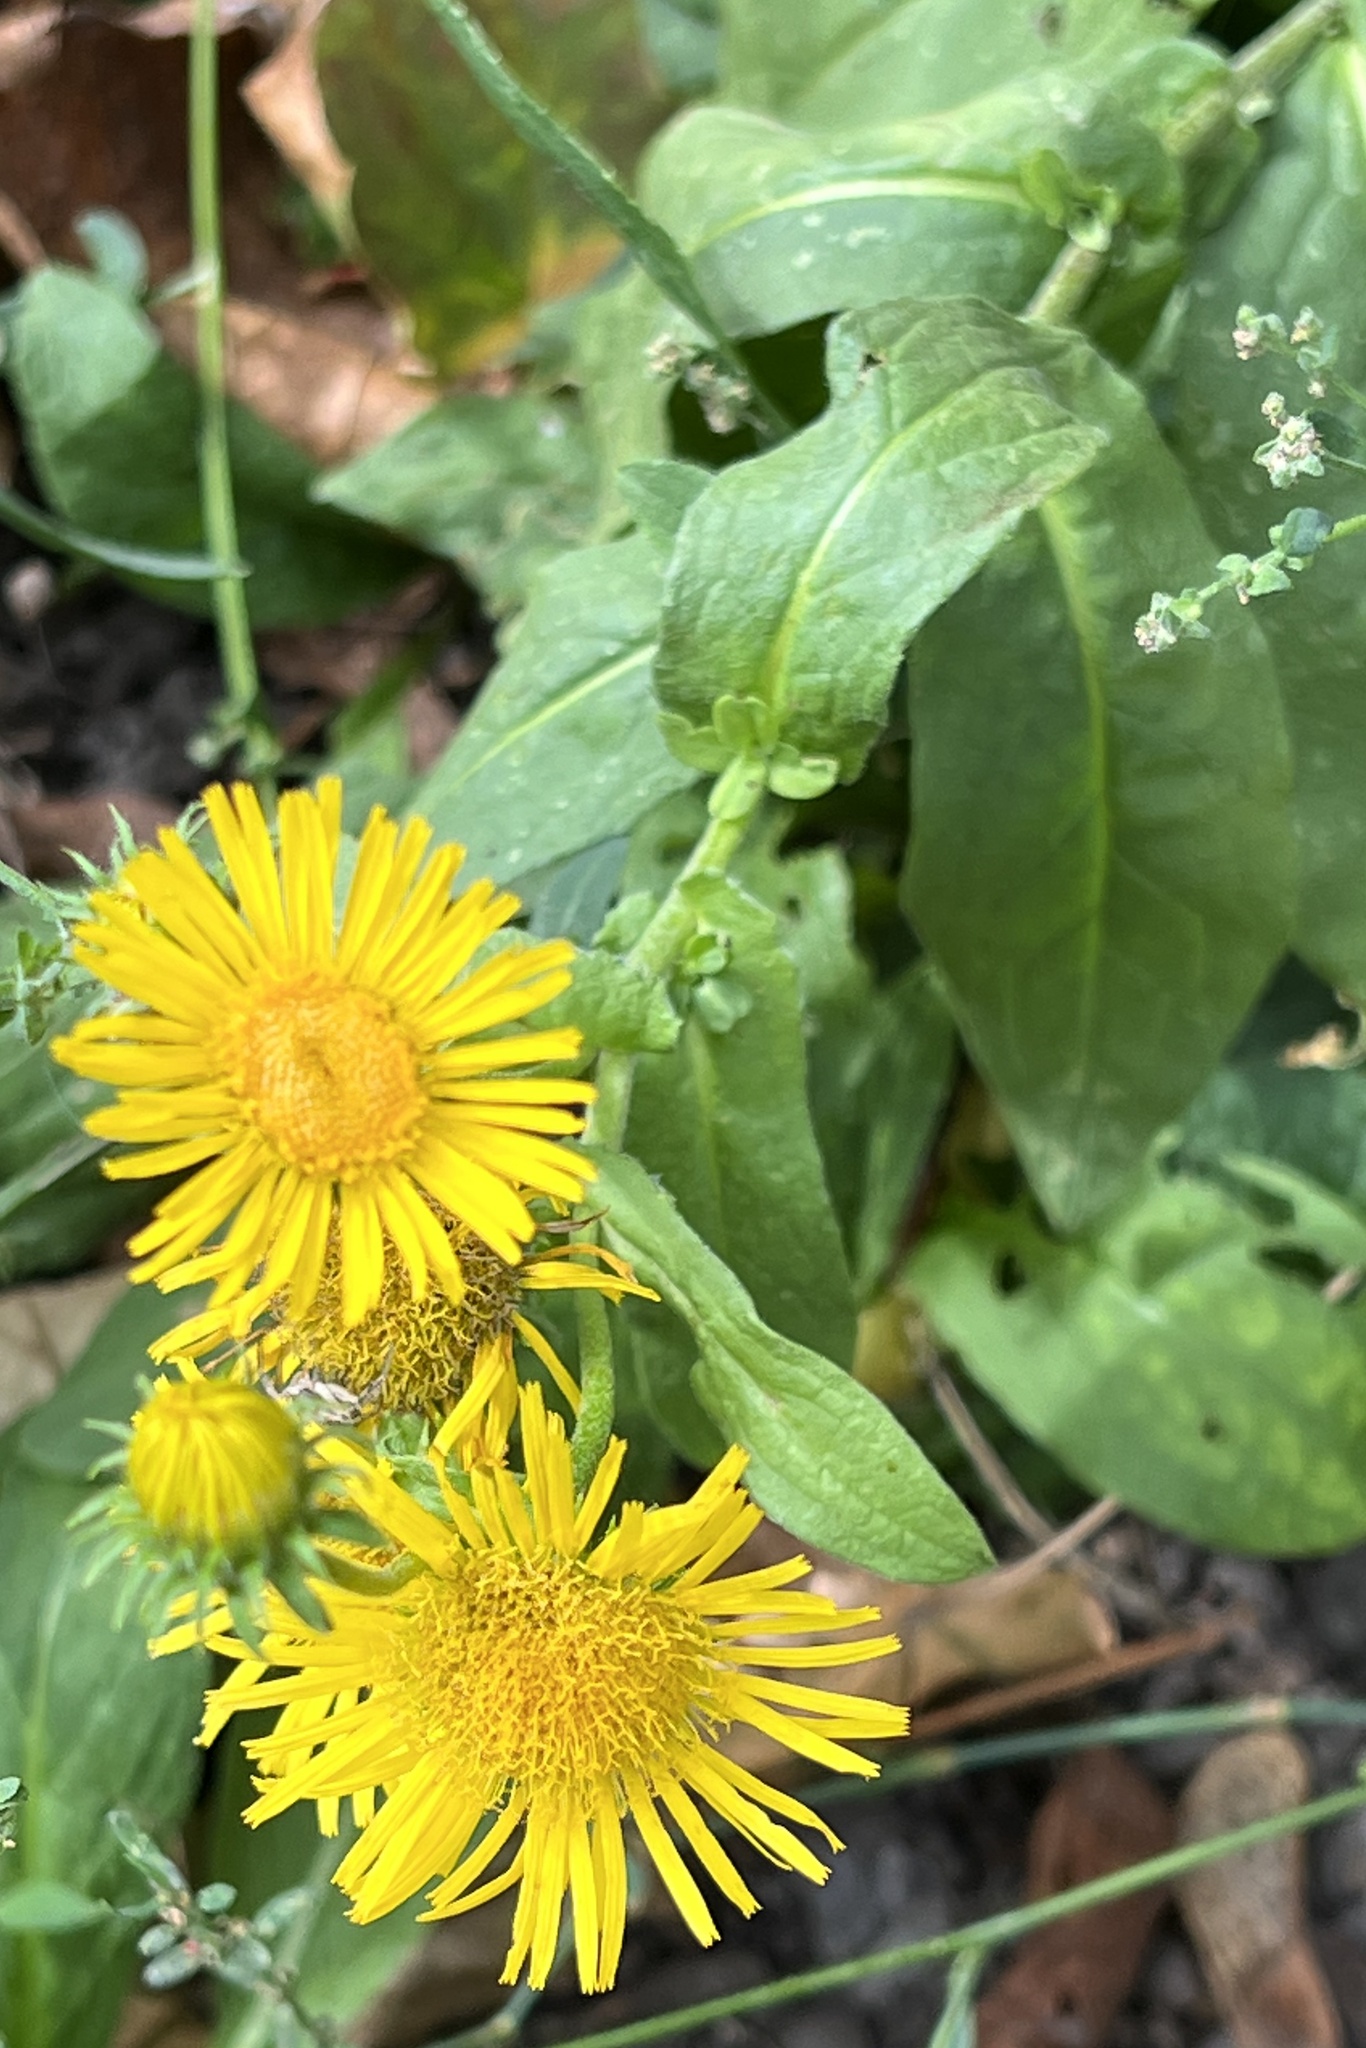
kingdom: Plantae
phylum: Tracheophyta
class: Magnoliopsida
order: Asterales
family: Asteraceae
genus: Pentanema
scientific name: Pentanema britannicum
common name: British elecampane
